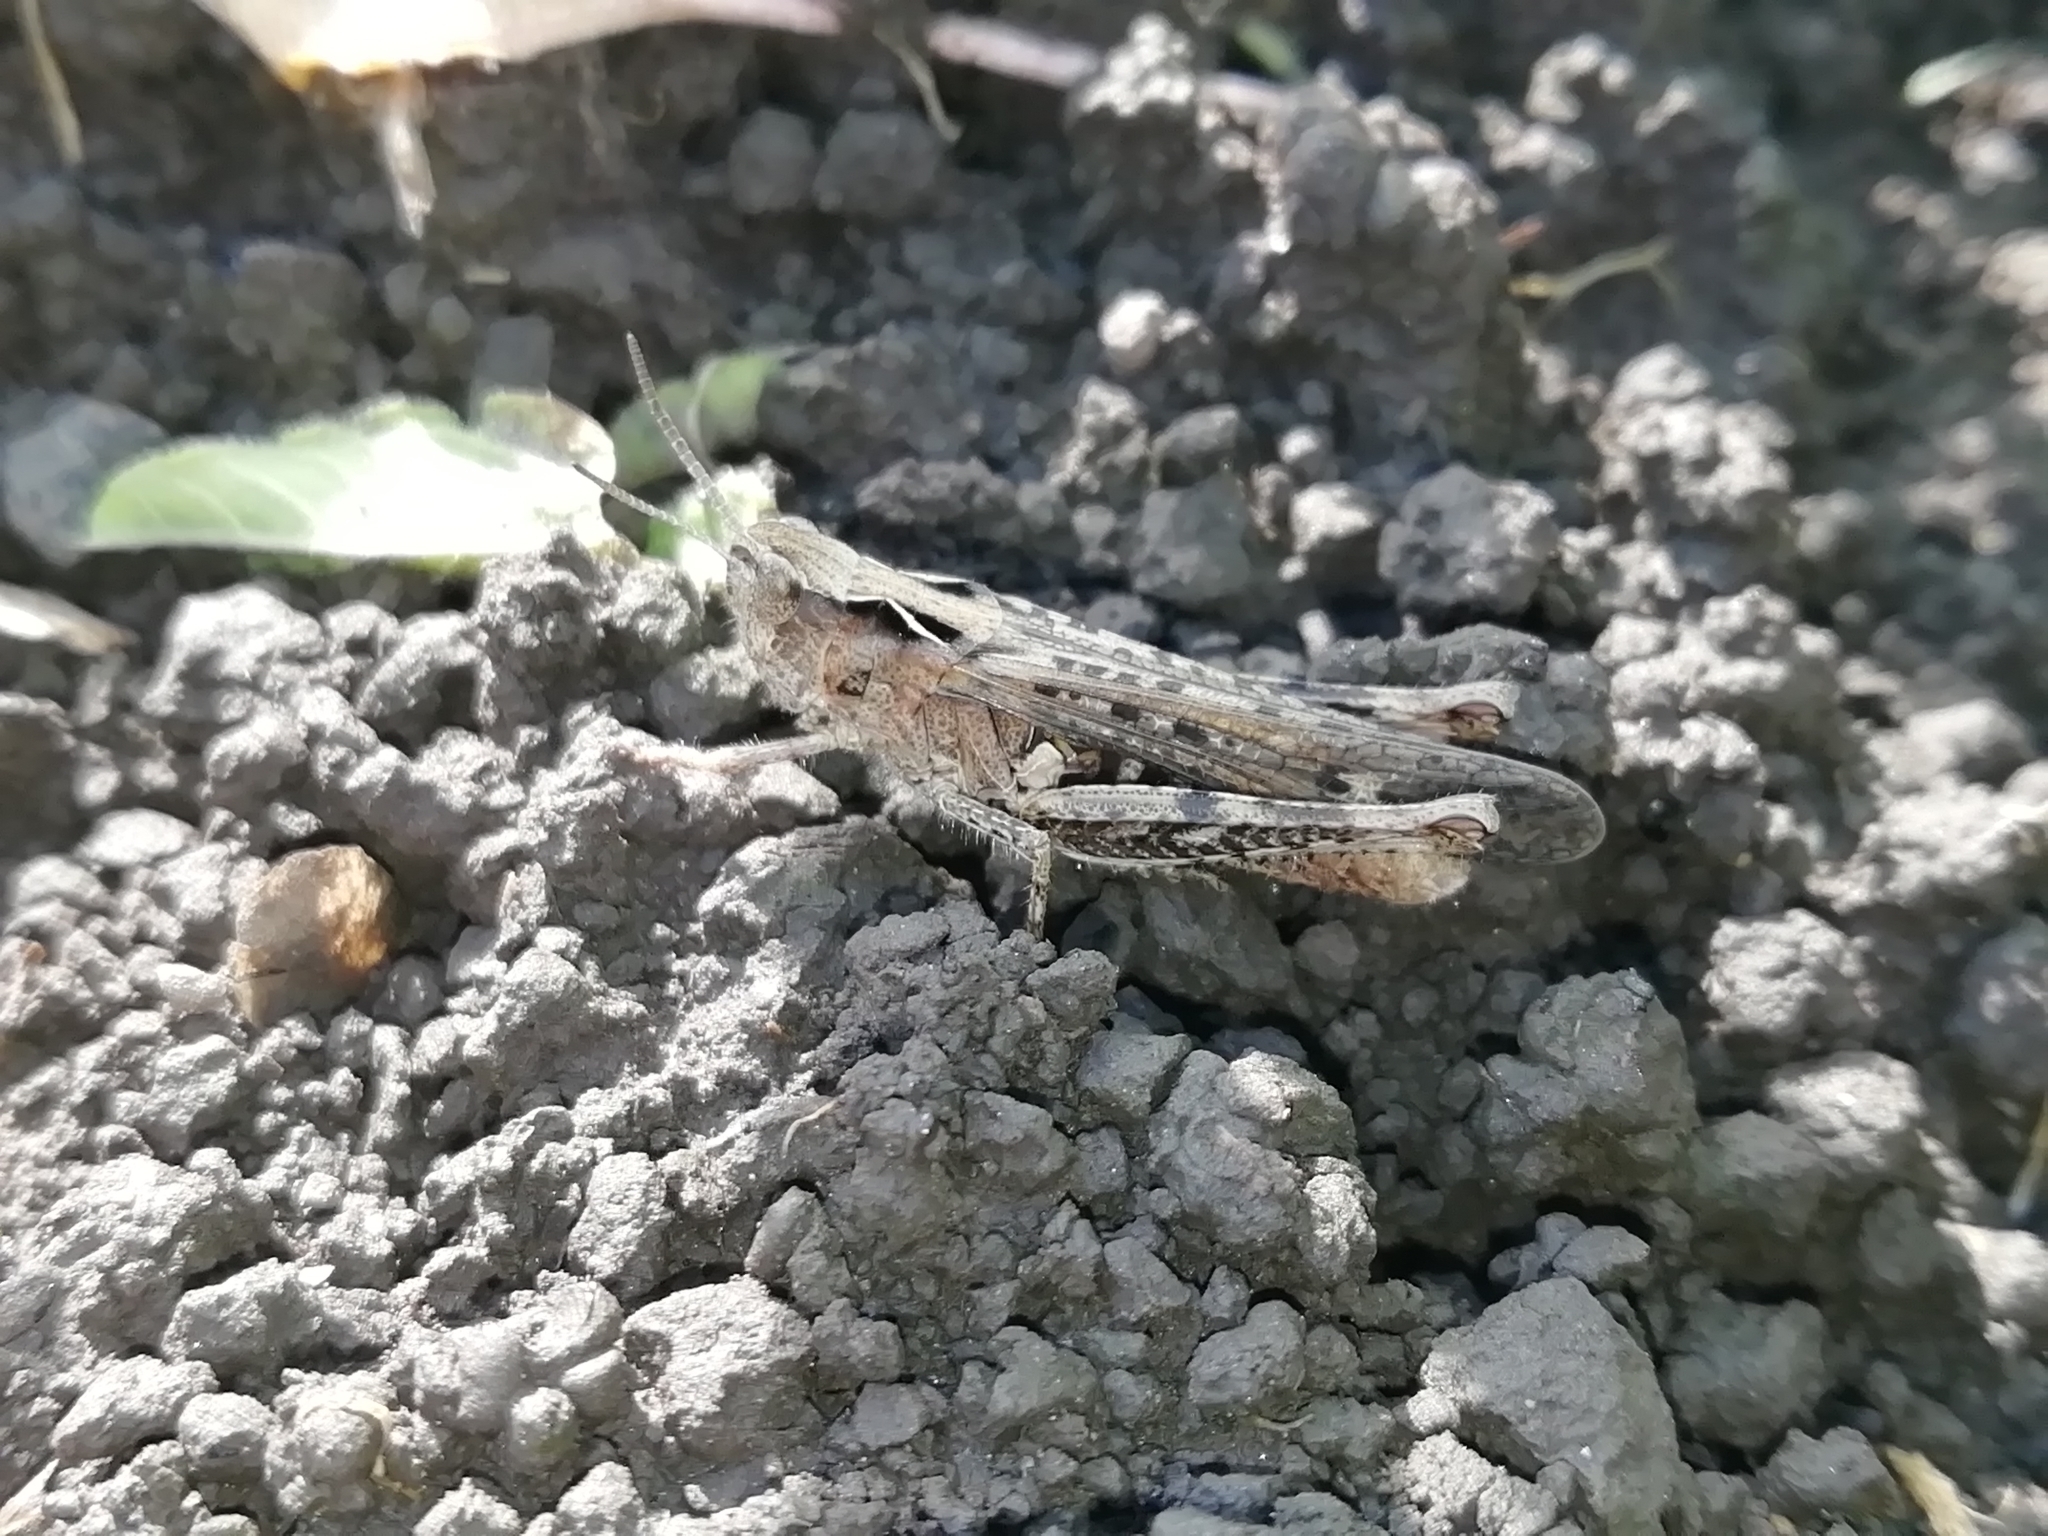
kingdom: Animalia
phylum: Arthropoda
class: Insecta
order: Orthoptera
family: Acrididae
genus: Chorthippus
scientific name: Chorthippus biguttulus
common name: Bow-winged grasshopper
